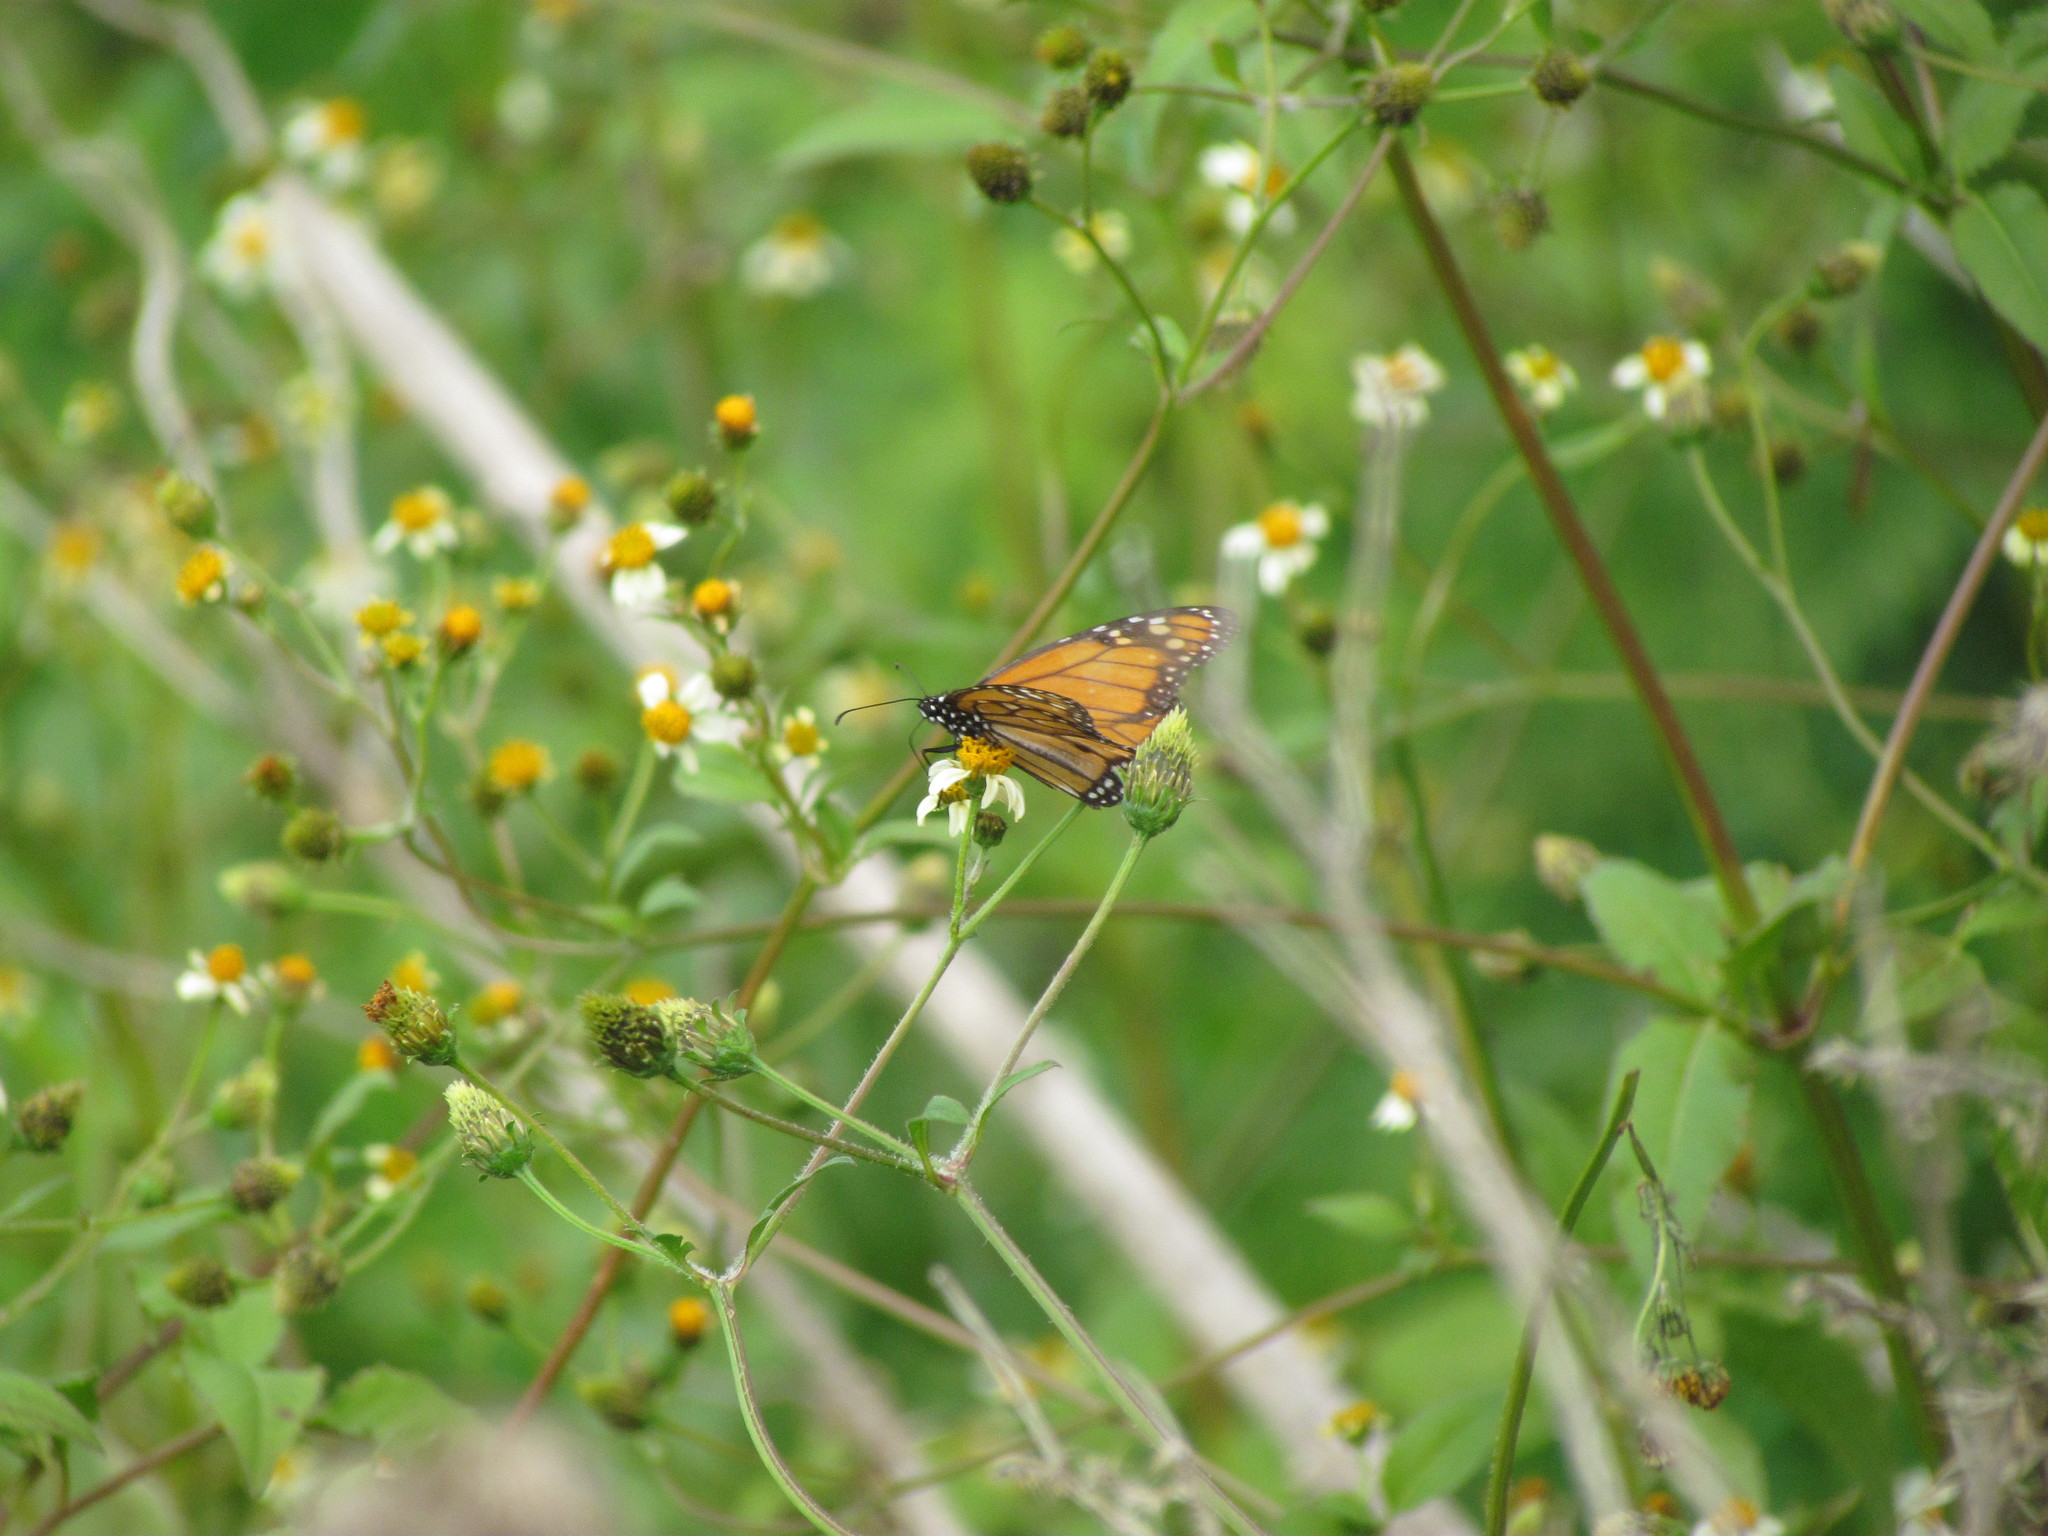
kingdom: Animalia
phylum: Arthropoda
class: Insecta
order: Lepidoptera
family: Nymphalidae
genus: Danaus
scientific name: Danaus erippus
